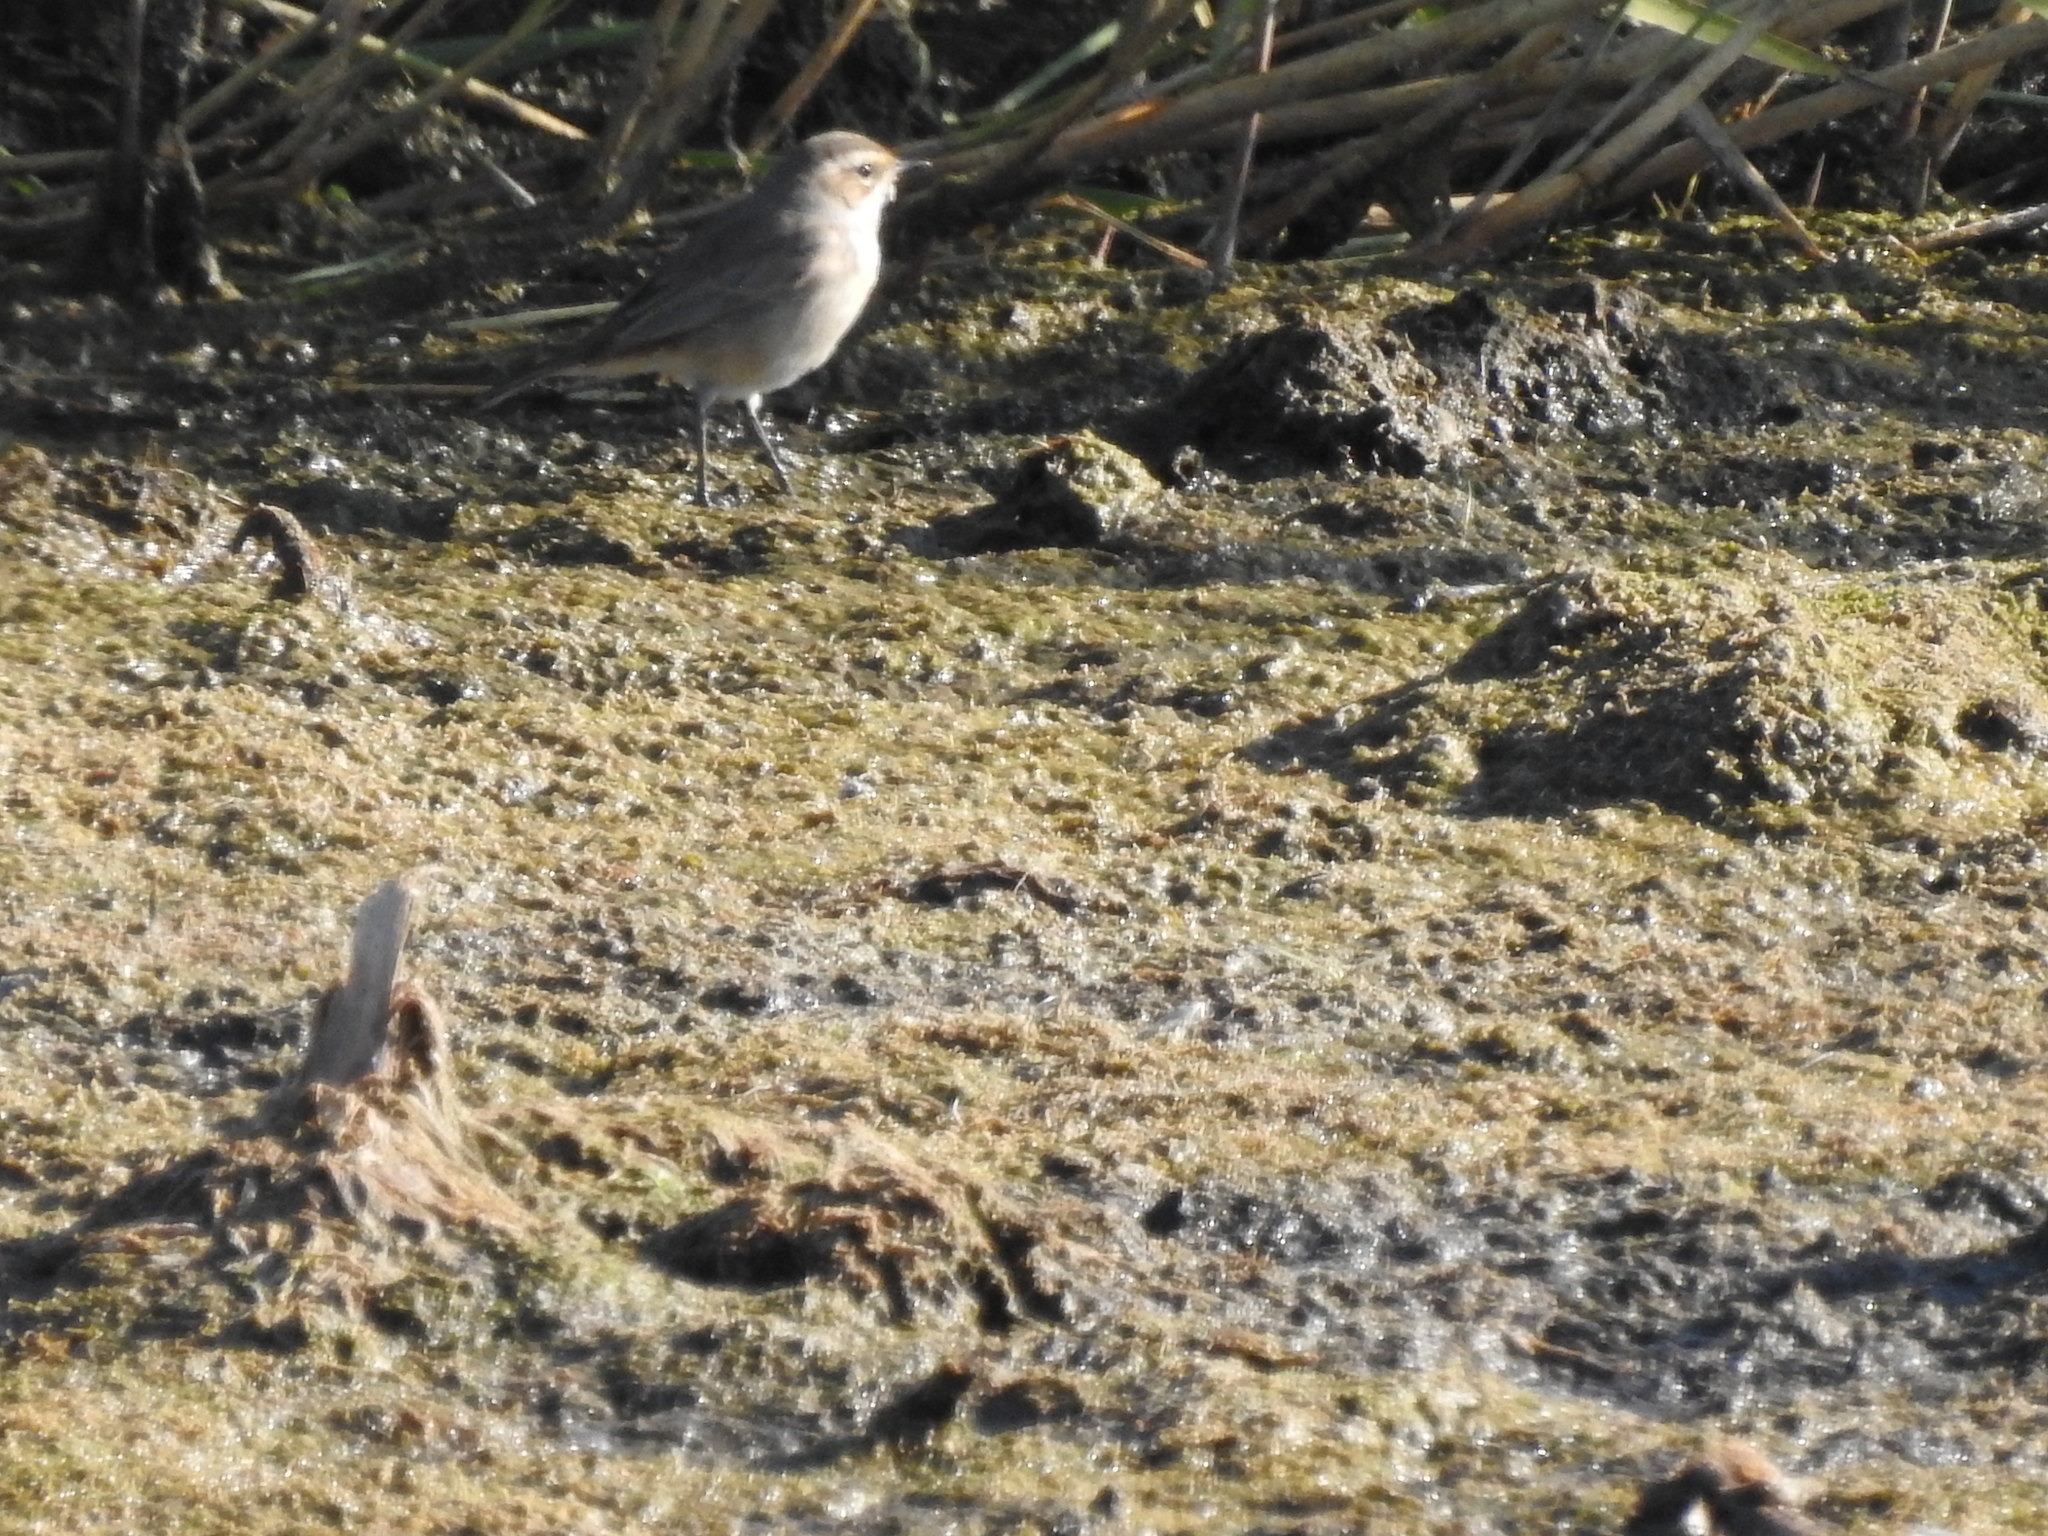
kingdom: Animalia
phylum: Chordata
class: Aves
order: Passeriformes
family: Motacillidae
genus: Motacilla
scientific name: Motacilla flava
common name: Western yellow wagtail
